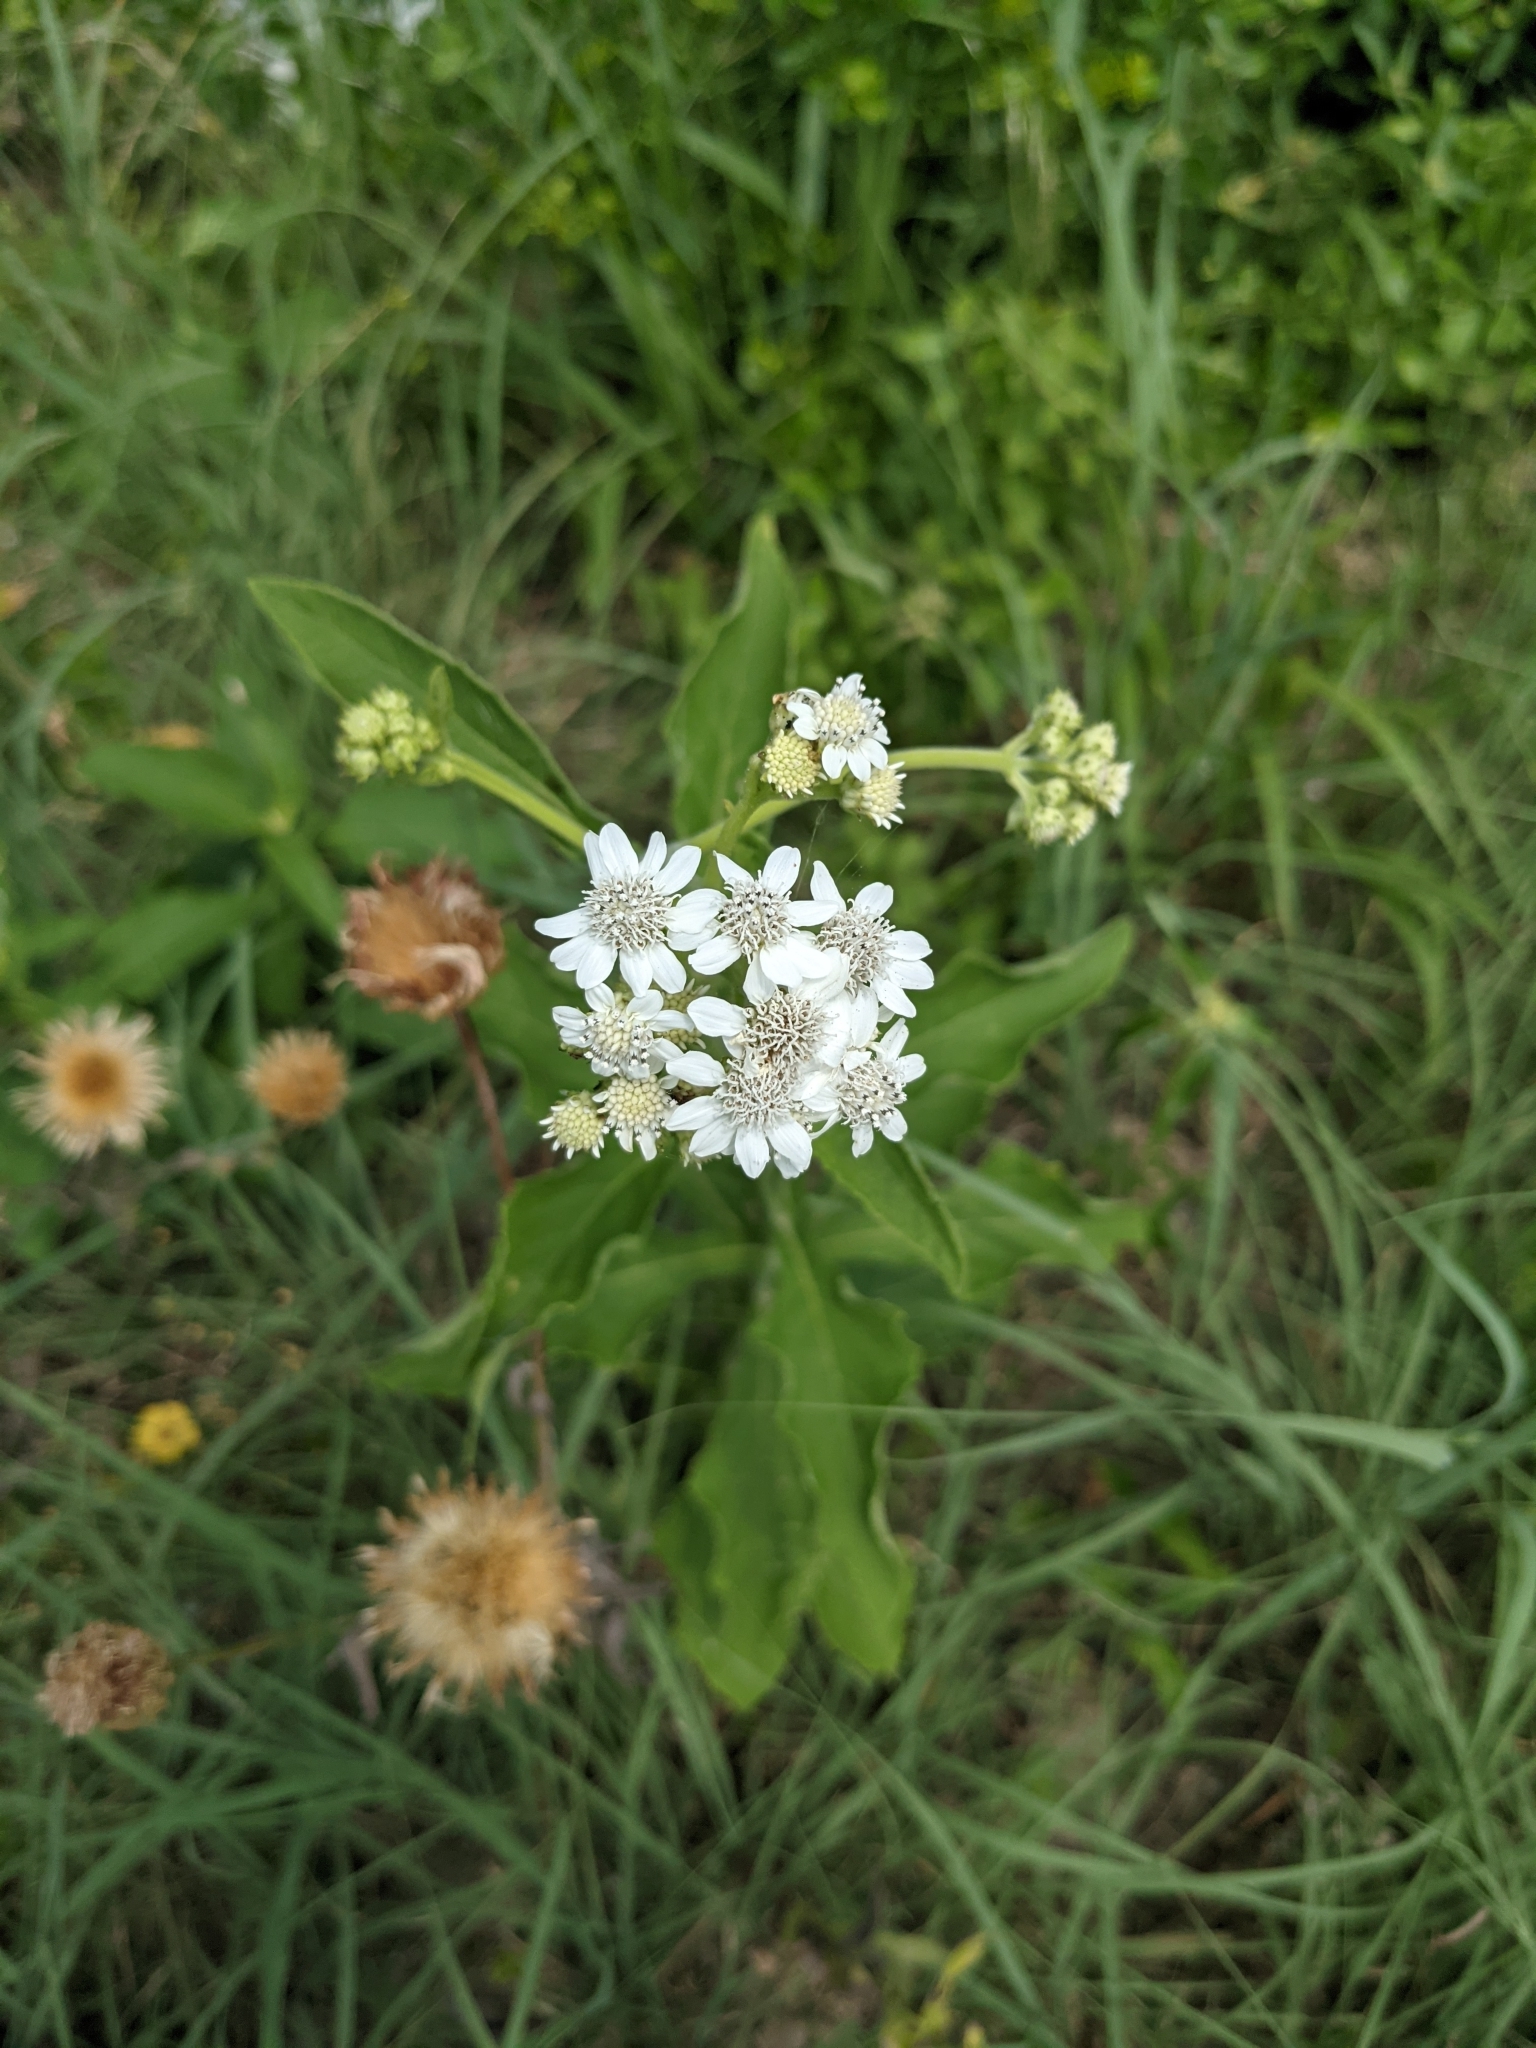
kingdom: Plantae
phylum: Tracheophyta
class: Magnoliopsida
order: Asterales
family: Asteraceae
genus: Verbesina
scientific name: Verbesina microptera
